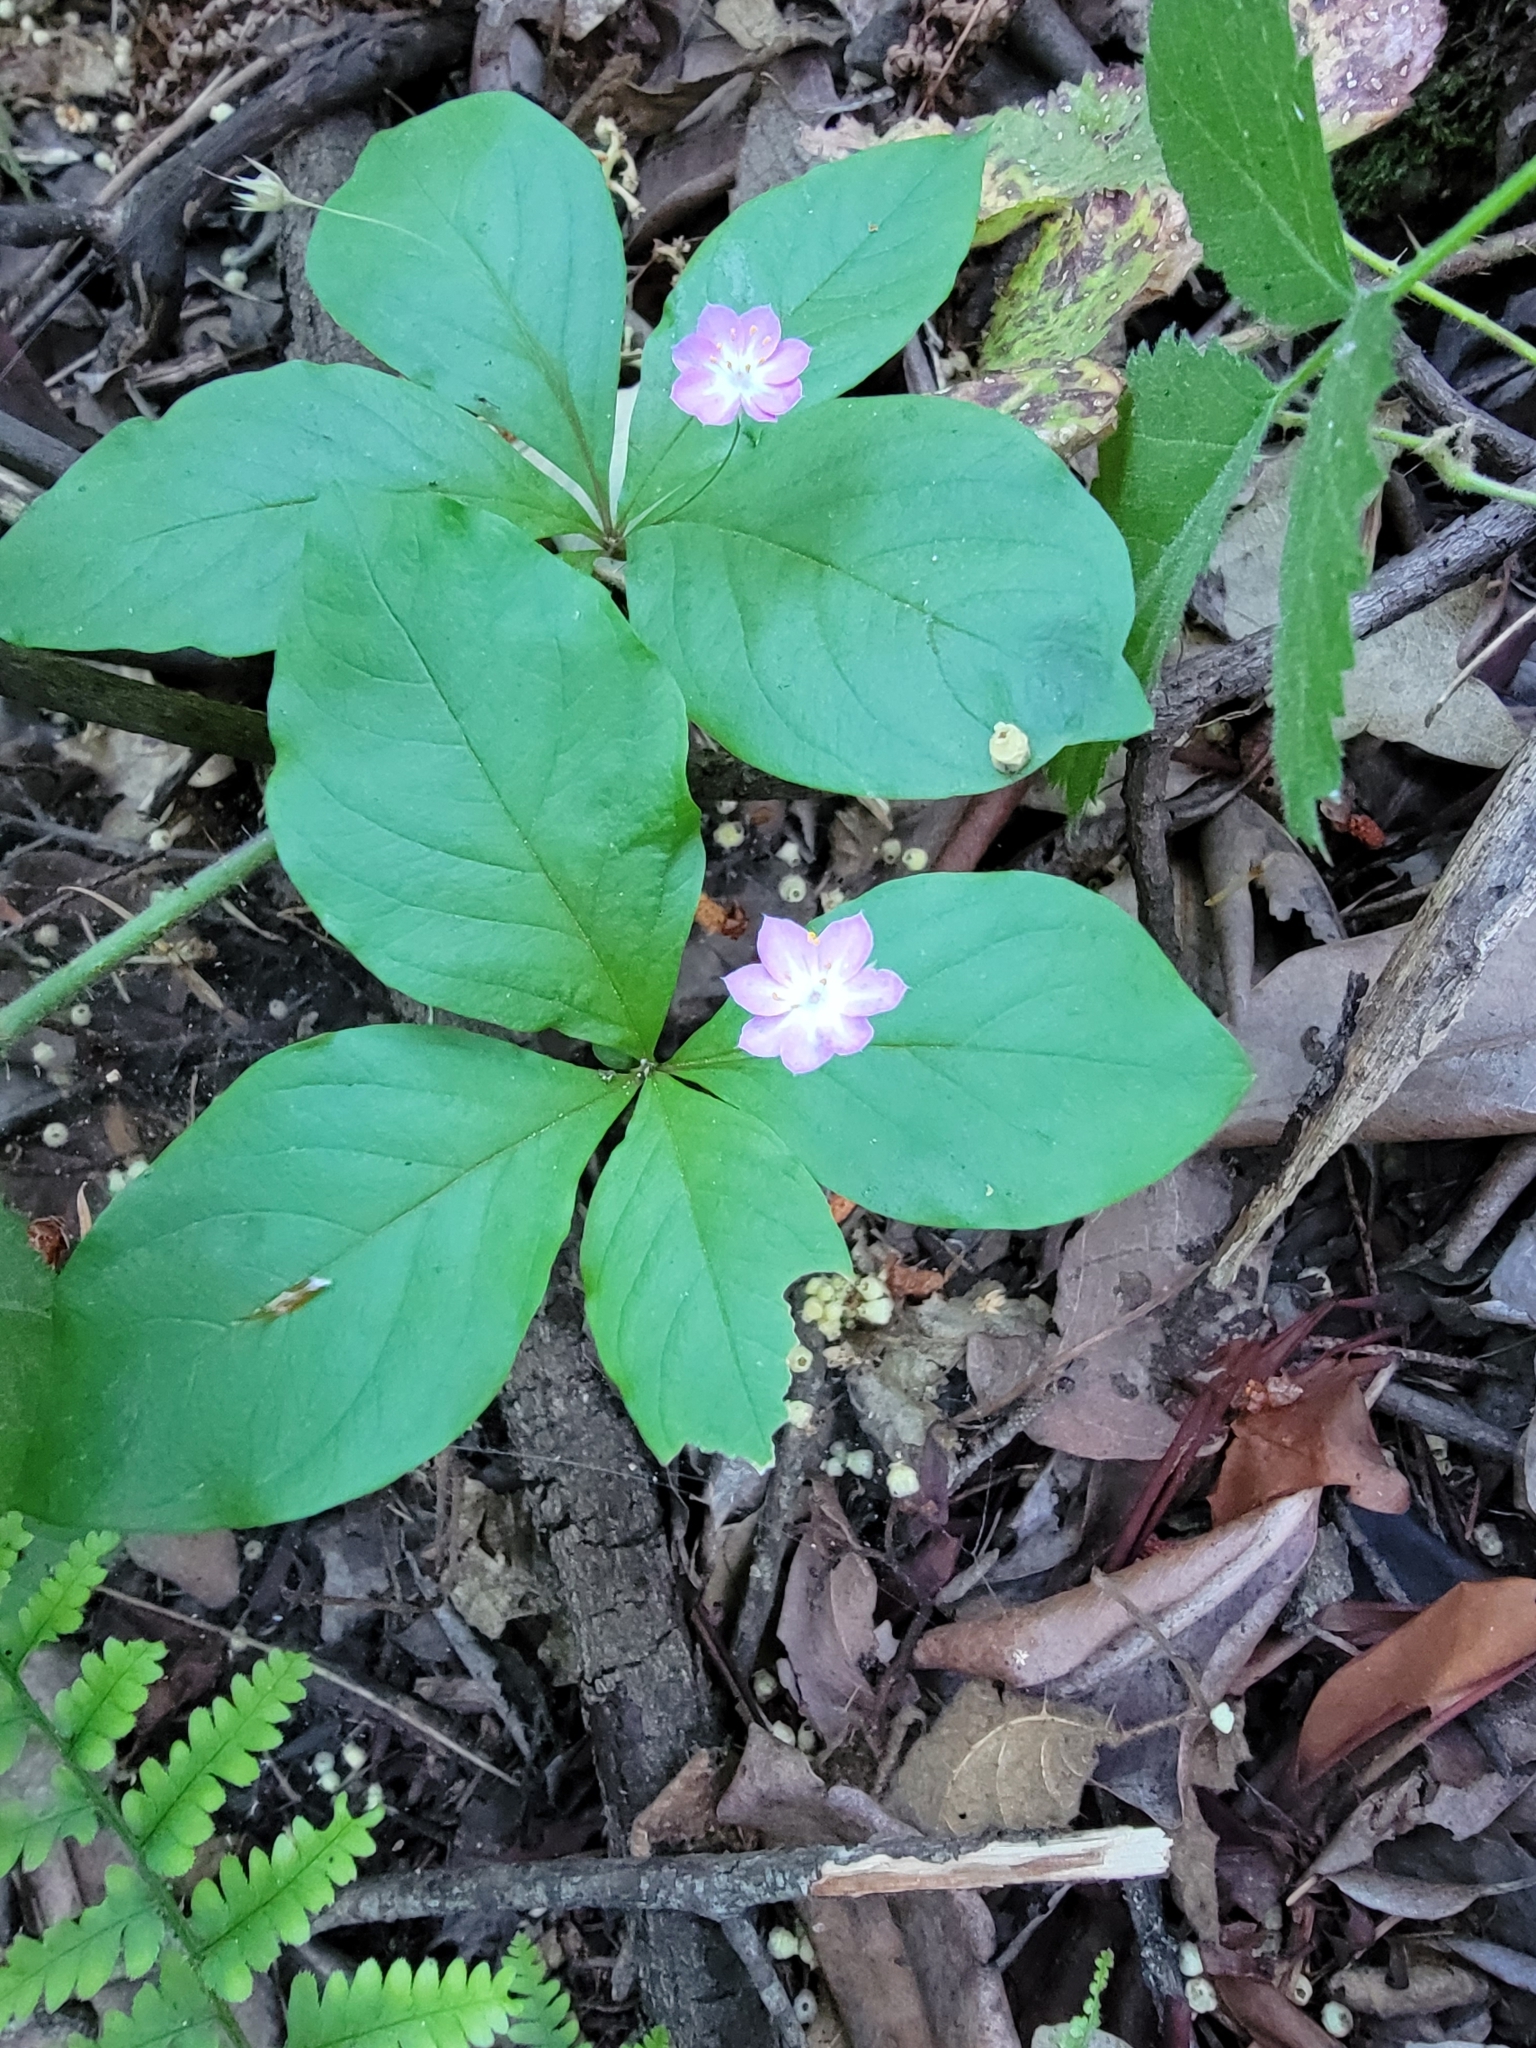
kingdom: Plantae
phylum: Tracheophyta
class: Magnoliopsida
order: Ericales
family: Primulaceae
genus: Lysimachia
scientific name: Lysimachia latifolia
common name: Pacific starflower
